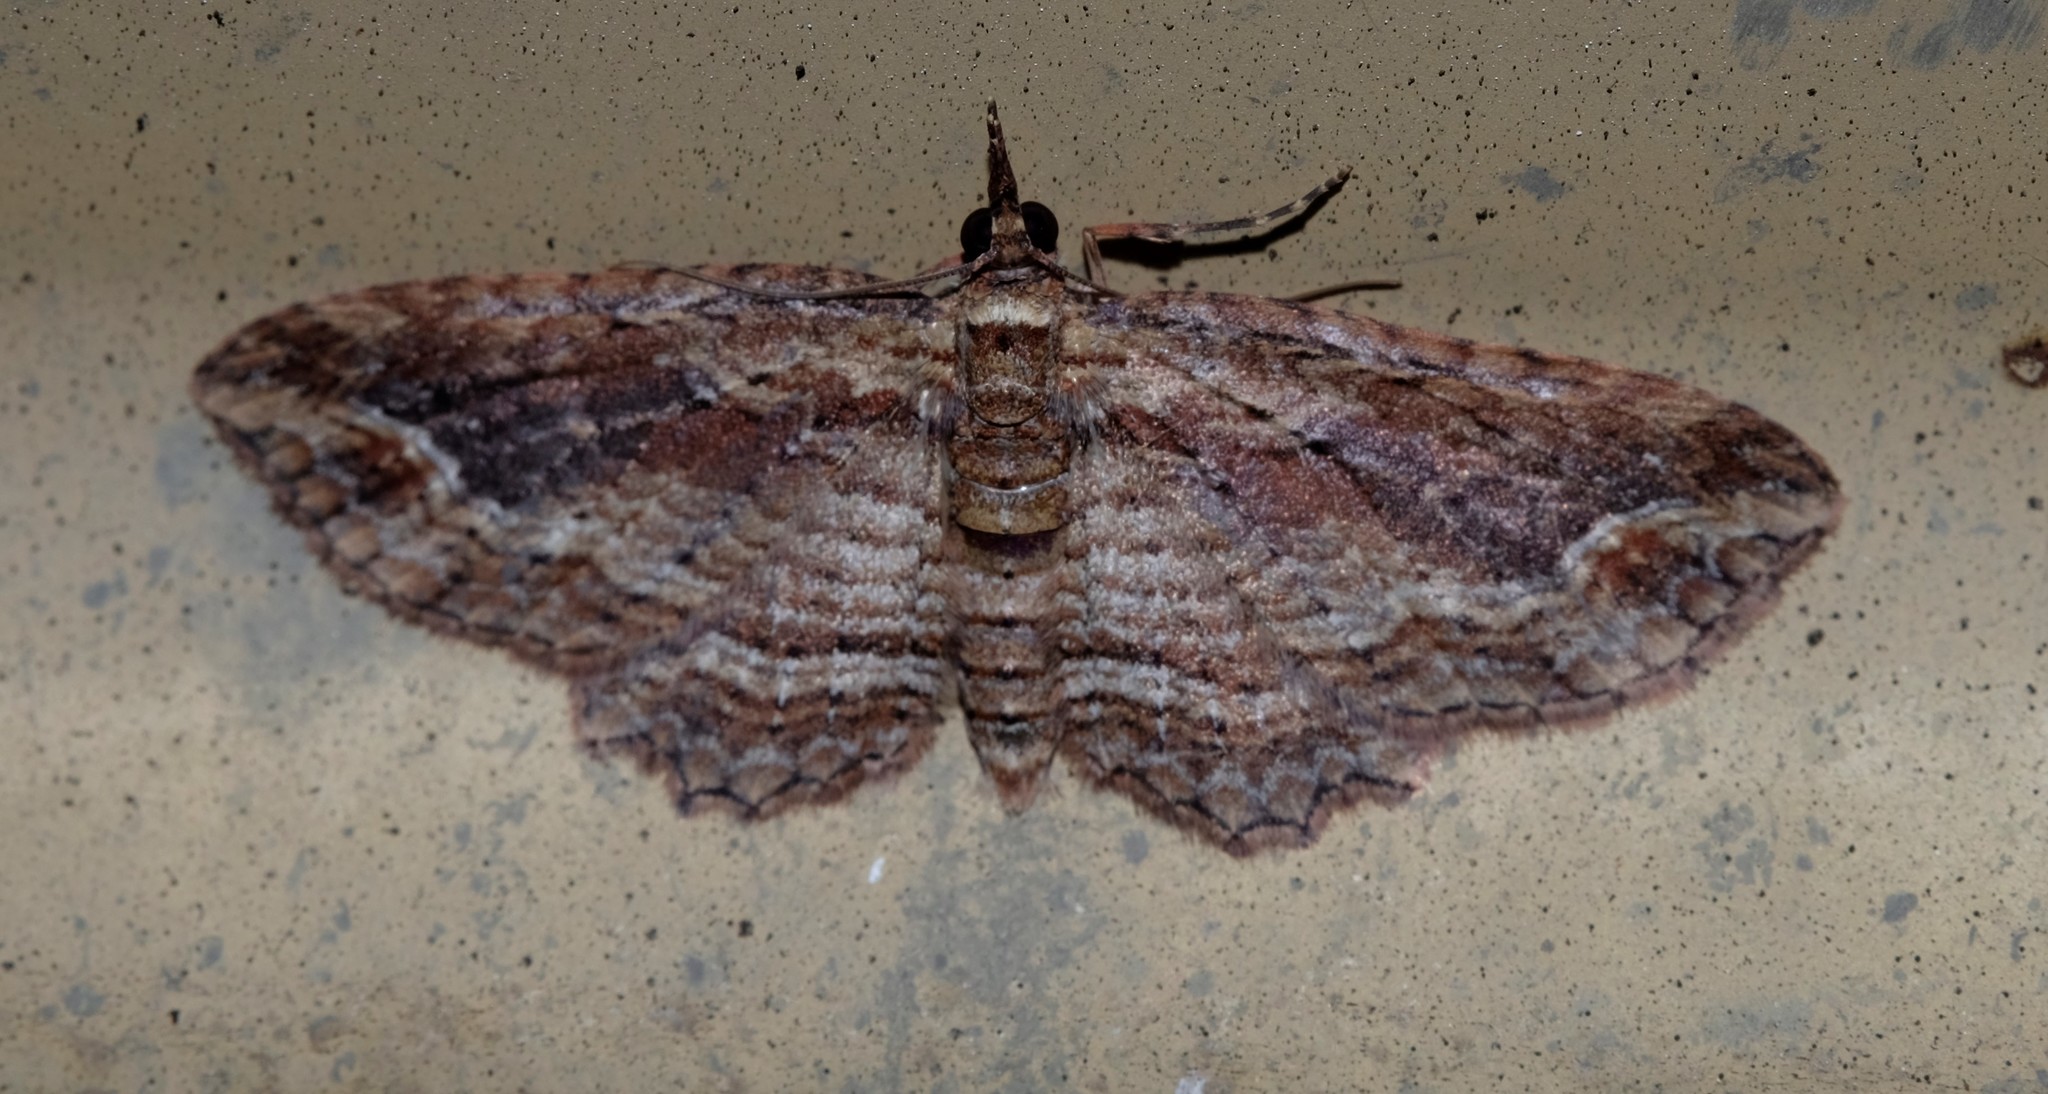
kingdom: Animalia
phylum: Arthropoda
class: Insecta
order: Lepidoptera
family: Geometridae
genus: Chloroclystis
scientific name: Chloroclystis filata
